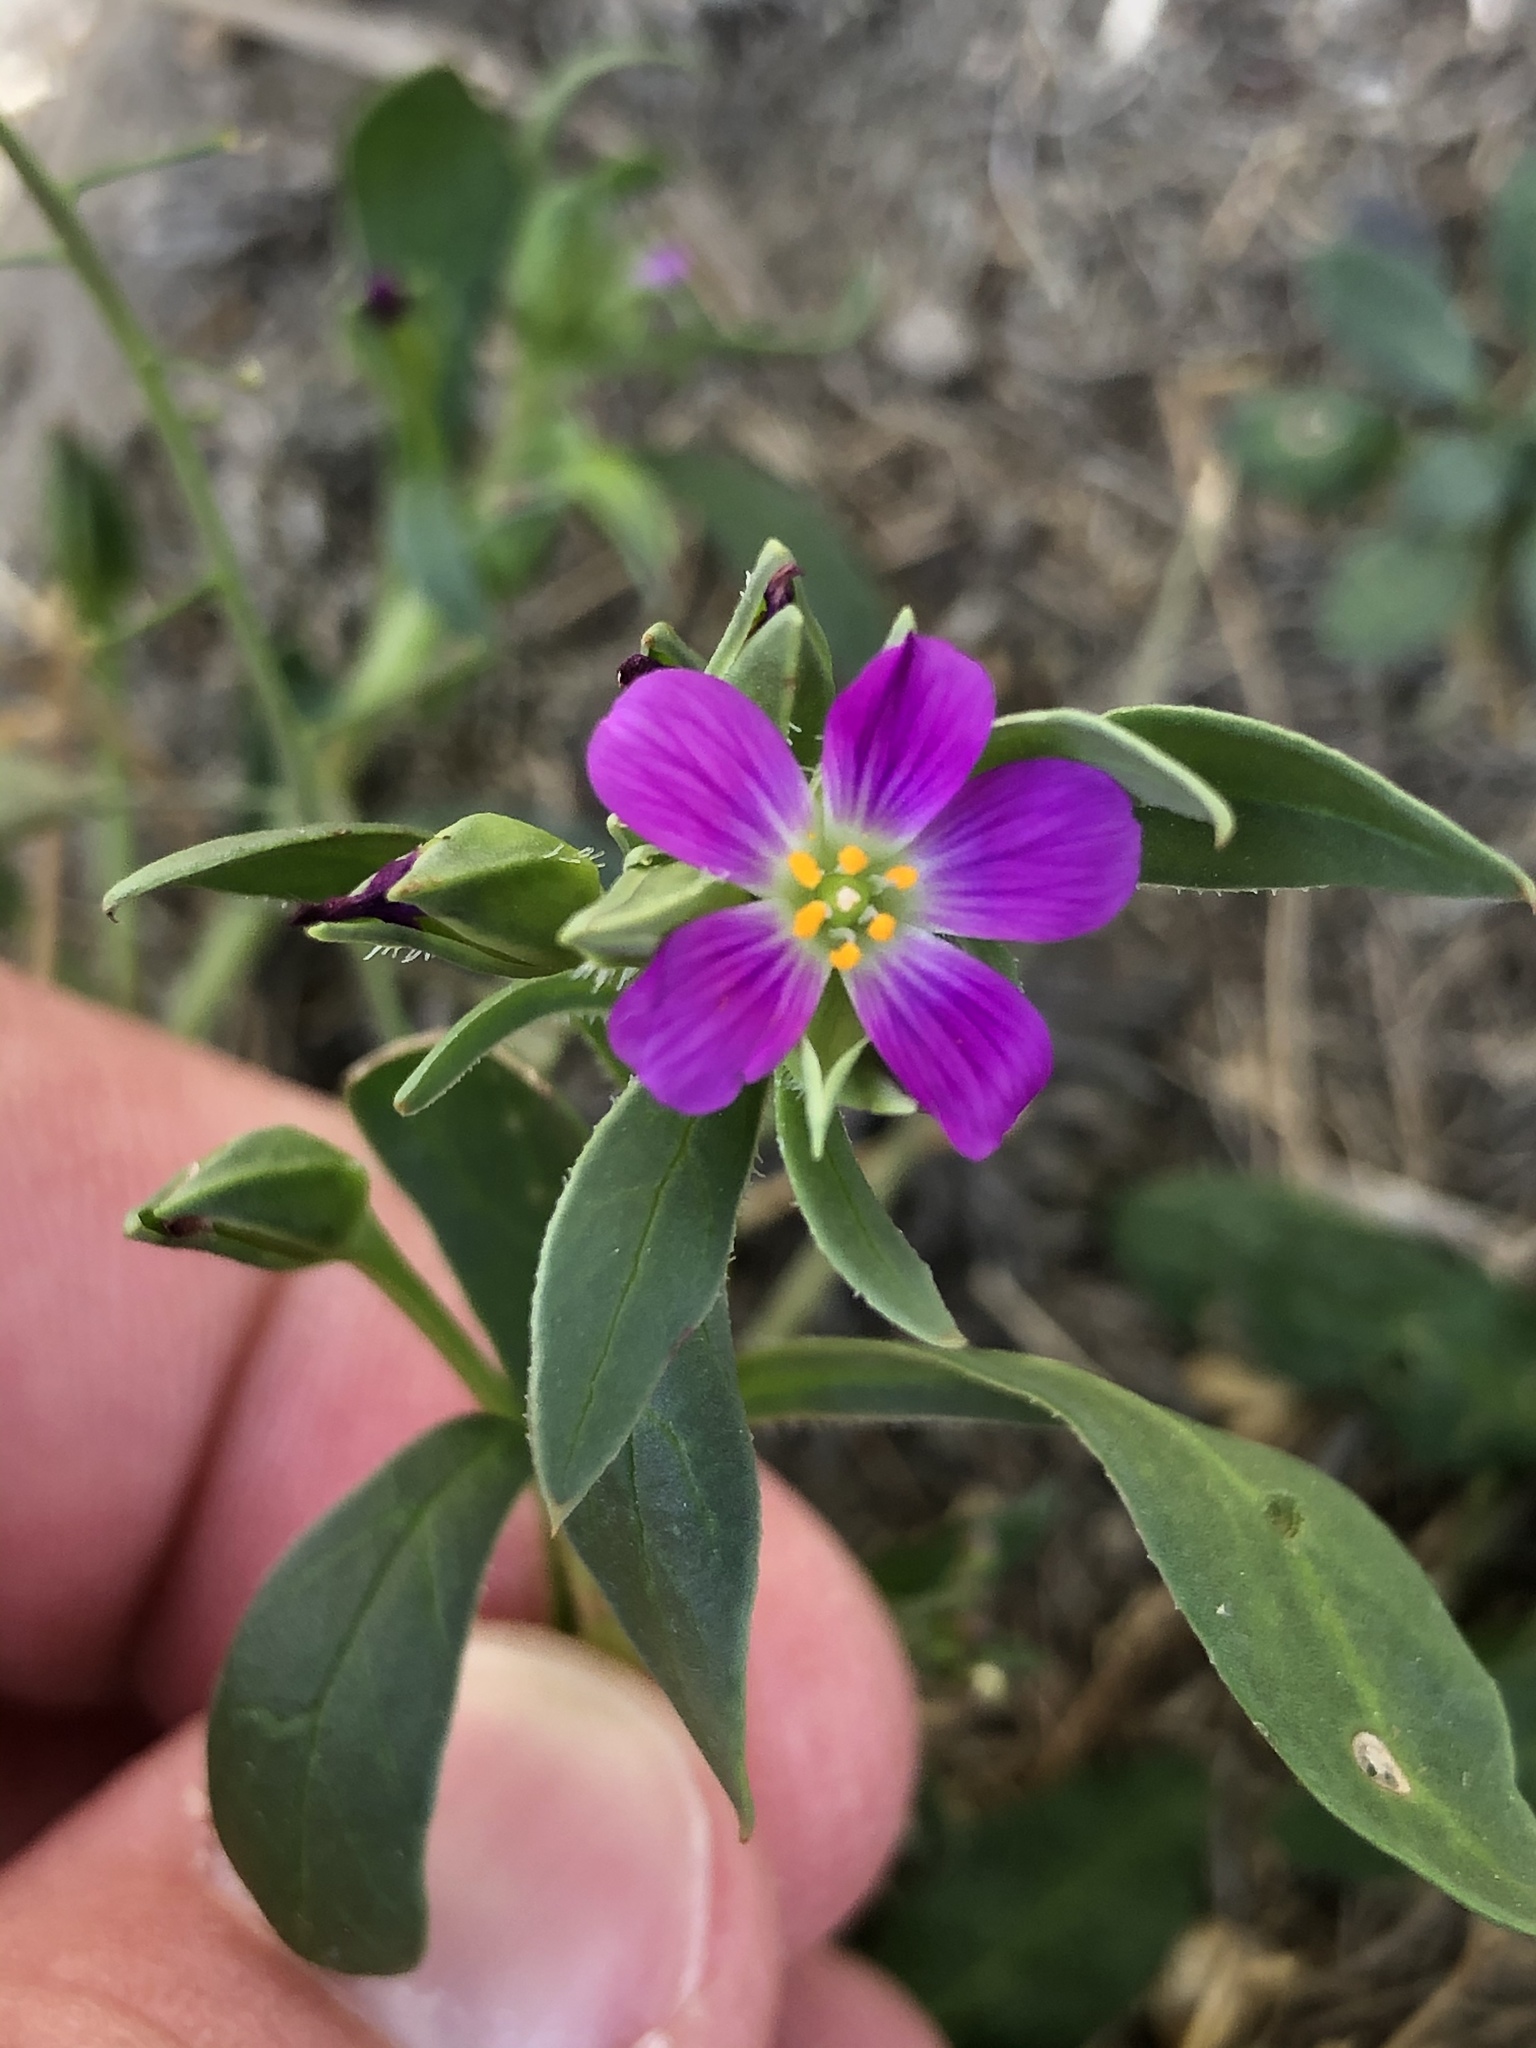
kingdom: Plantae
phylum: Tracheophyta
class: Magnoliopsida
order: Caryophyllales
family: Montiaceae
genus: Calandrinia
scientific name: Calandrinia menziesii
